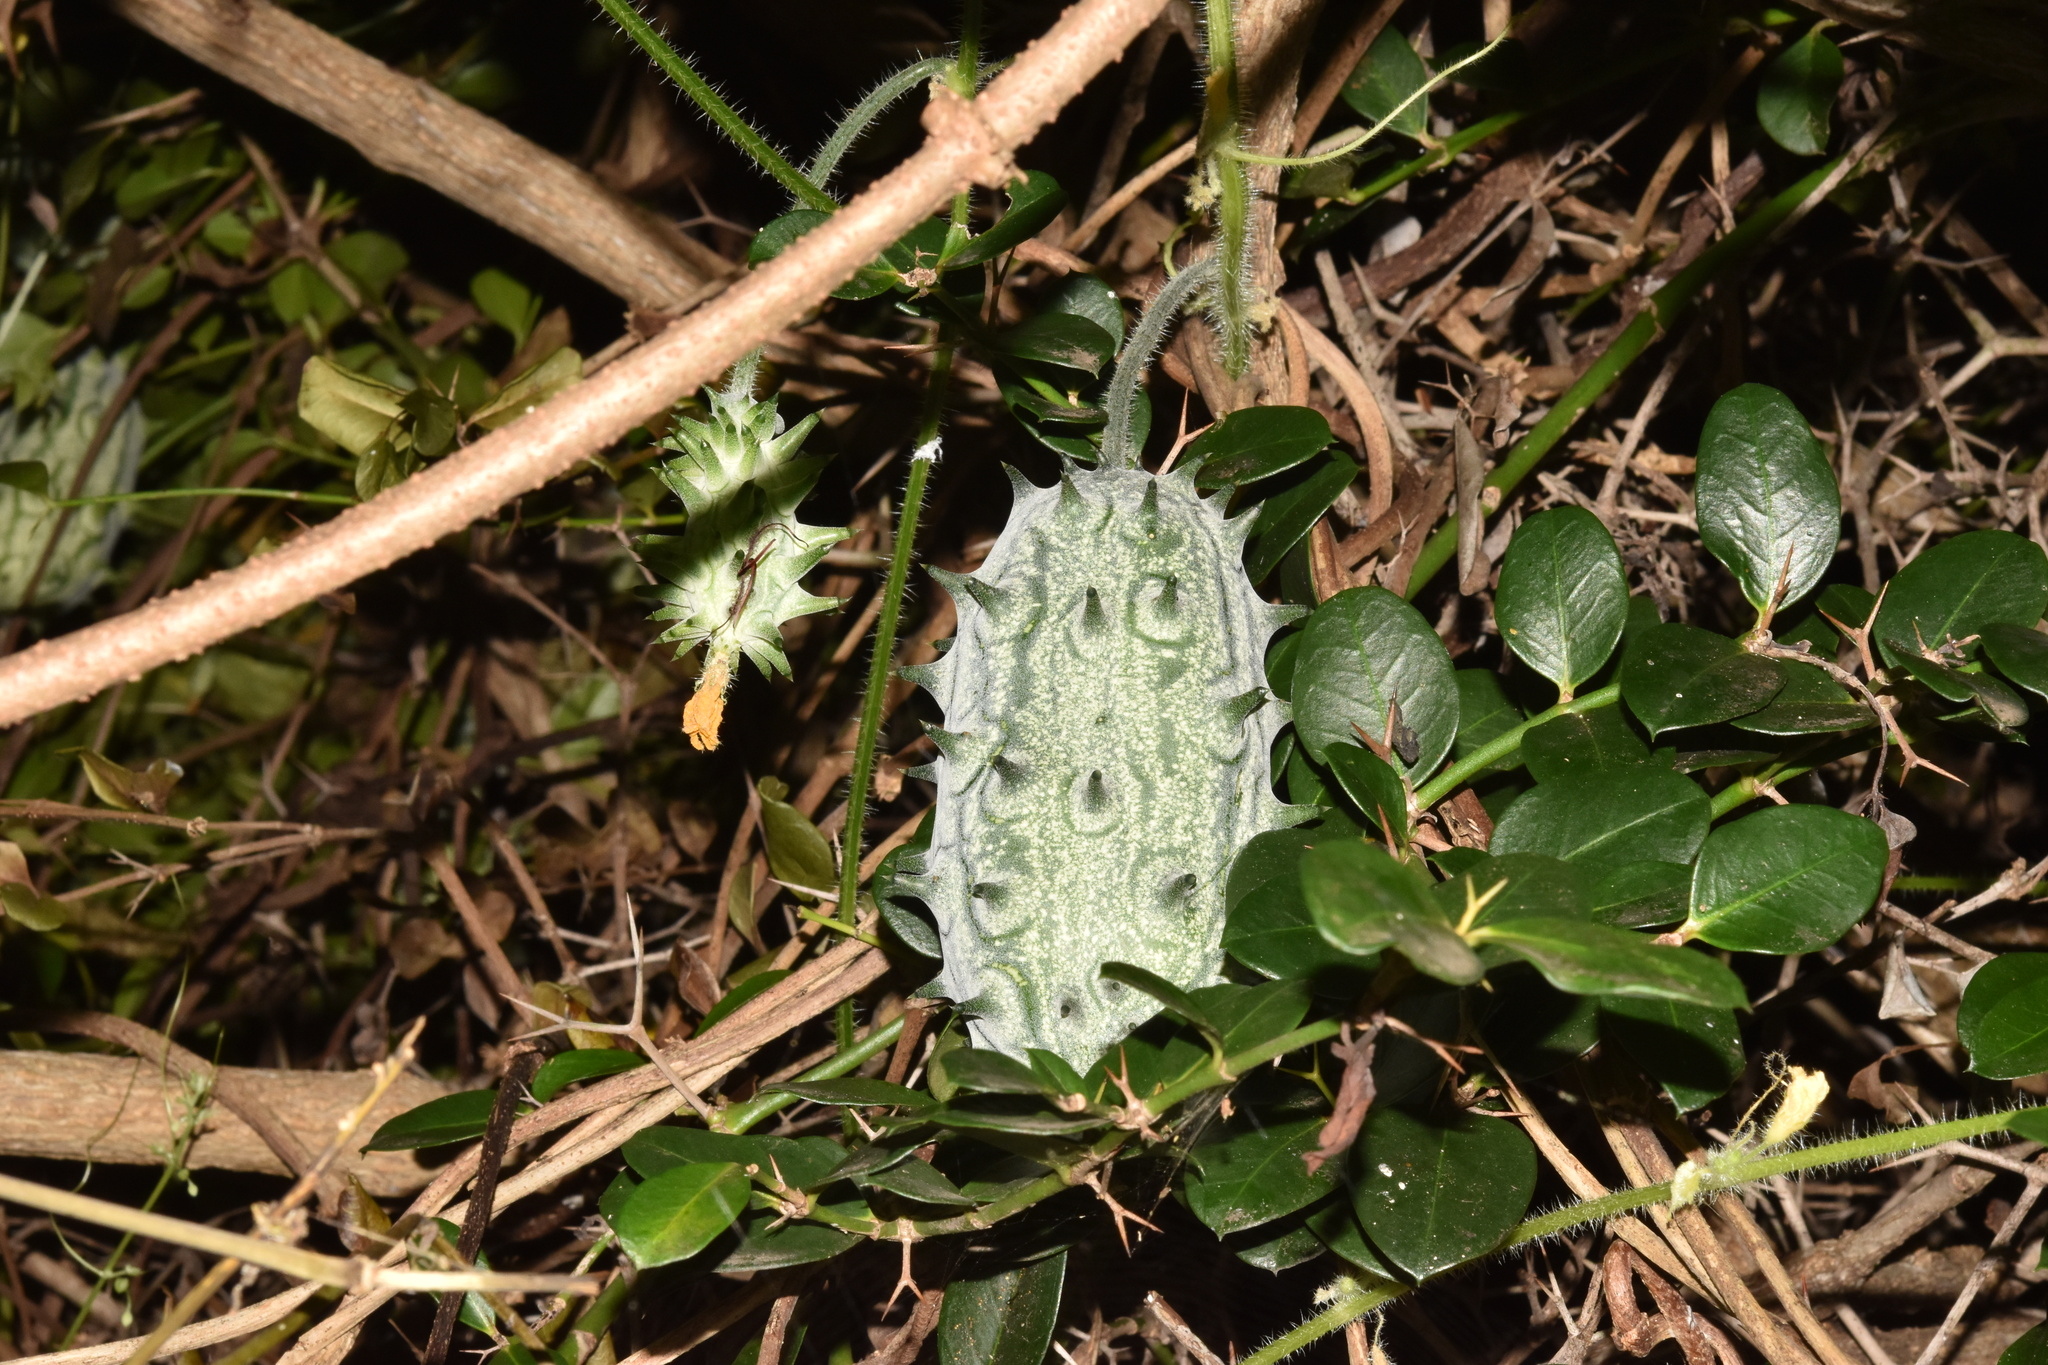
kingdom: Plantae
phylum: Tracheophyta
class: Magnoliopsida
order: Cucurbitales
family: Cucurbitaceae
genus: Cucumis
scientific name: Cucumis metuliferus
